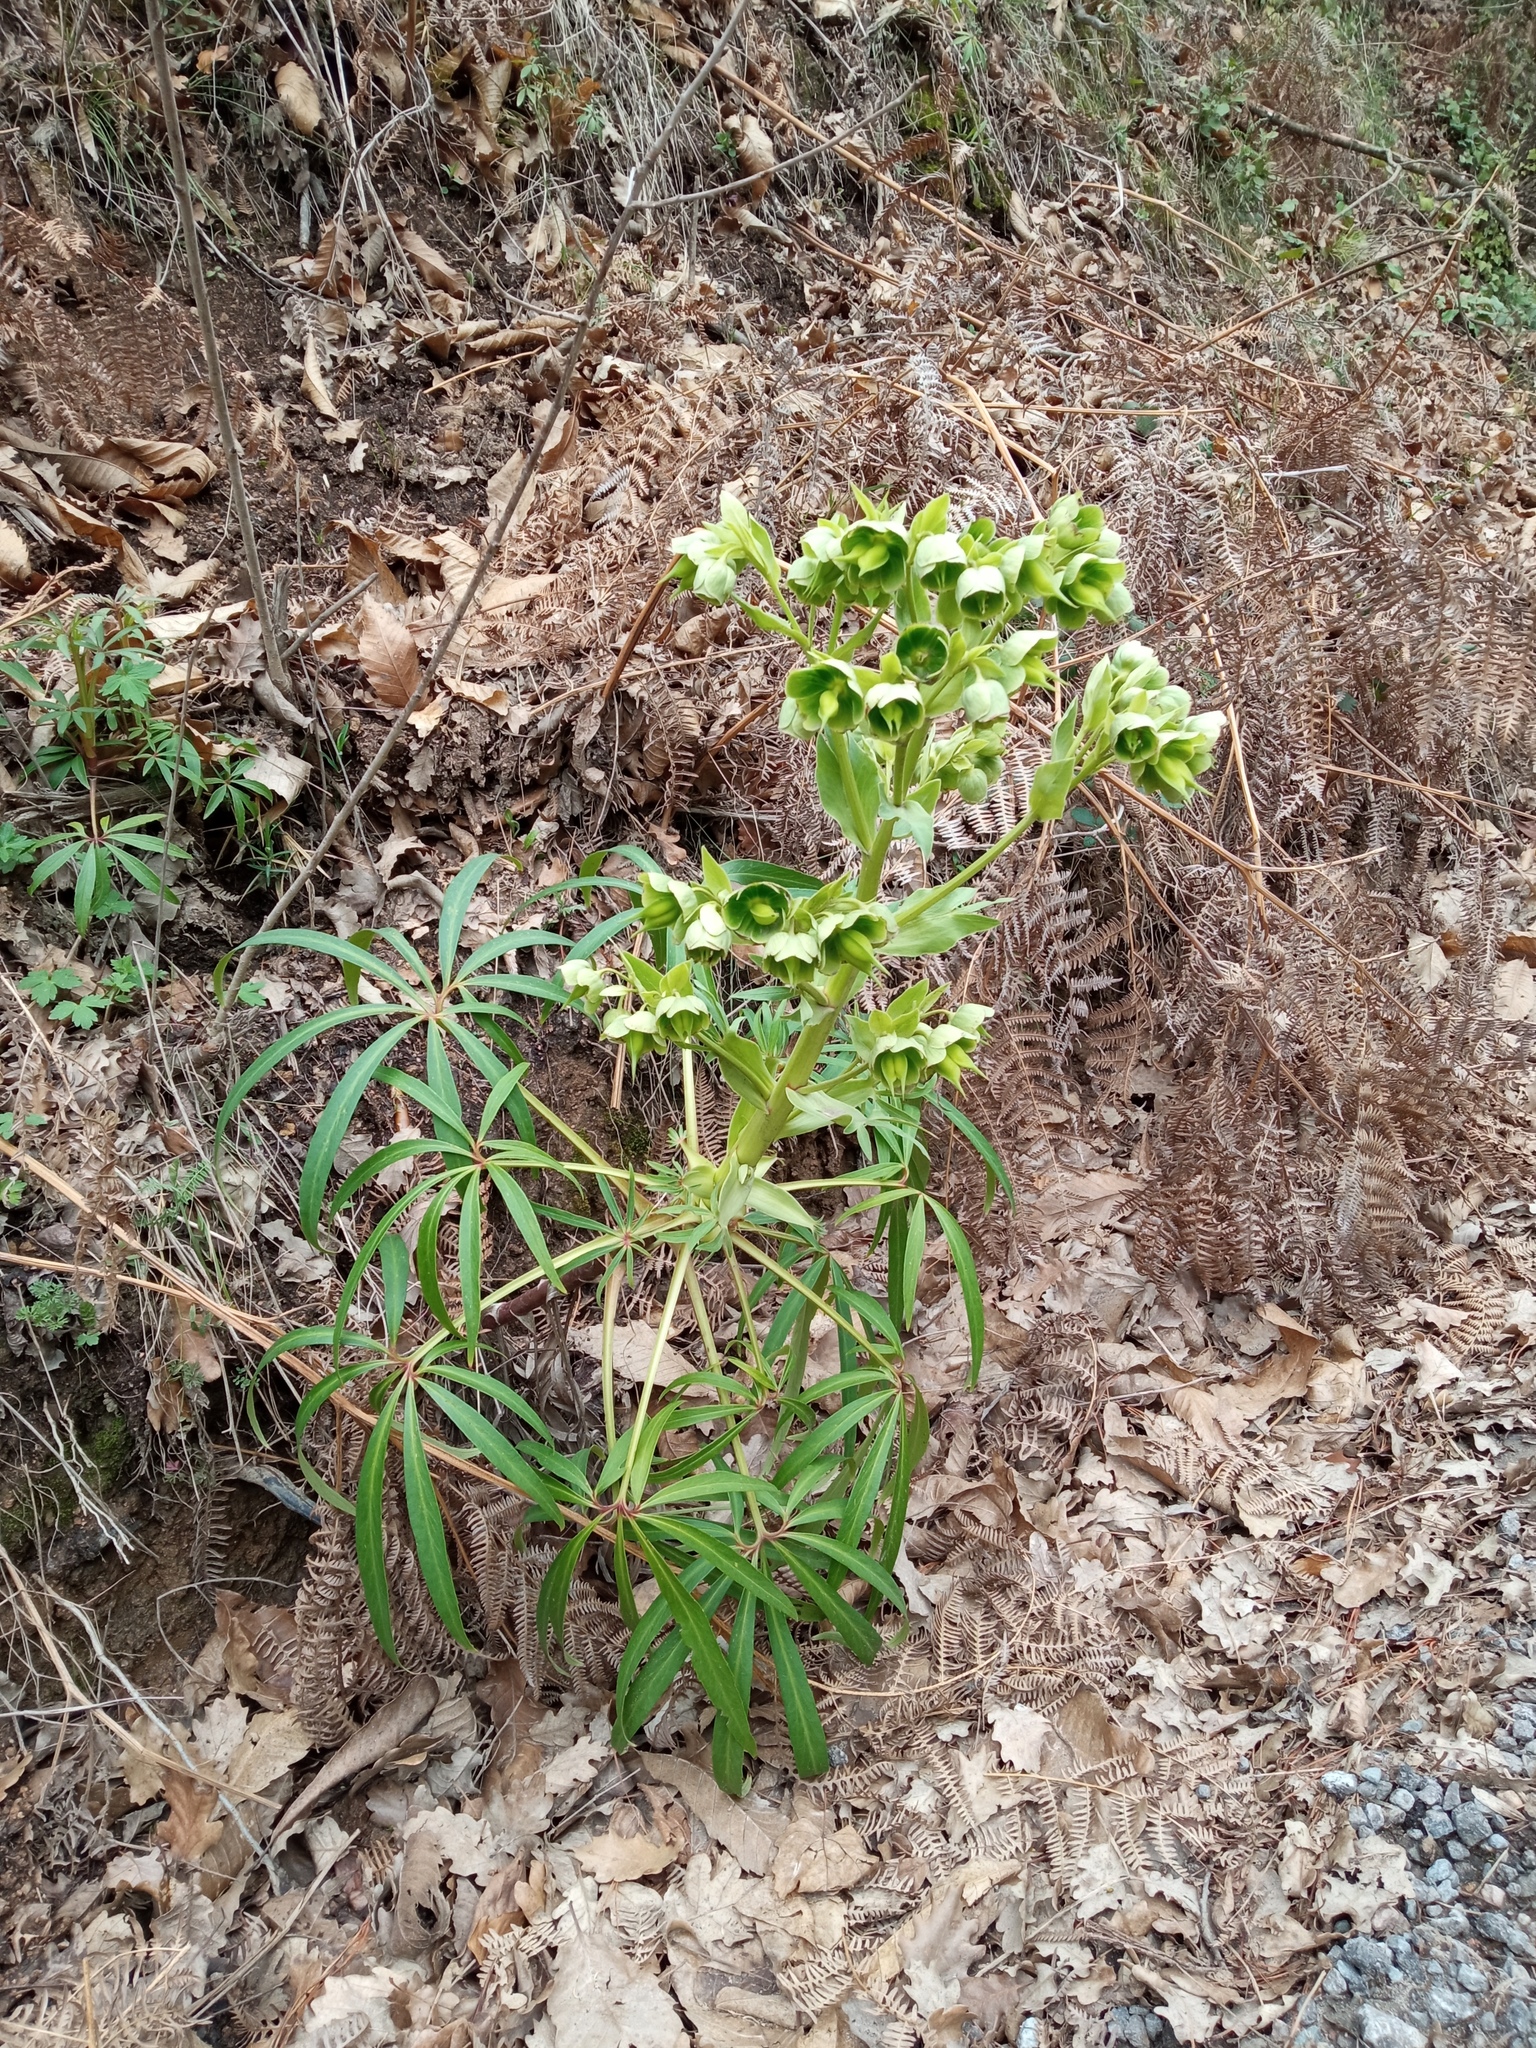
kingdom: Plantae
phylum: Tracheophyta
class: Magnoliopsida
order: Ranunculales
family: Ranunculaceae
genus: Helleborus
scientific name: Helleborus foetidus
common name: Stinking hellebore
